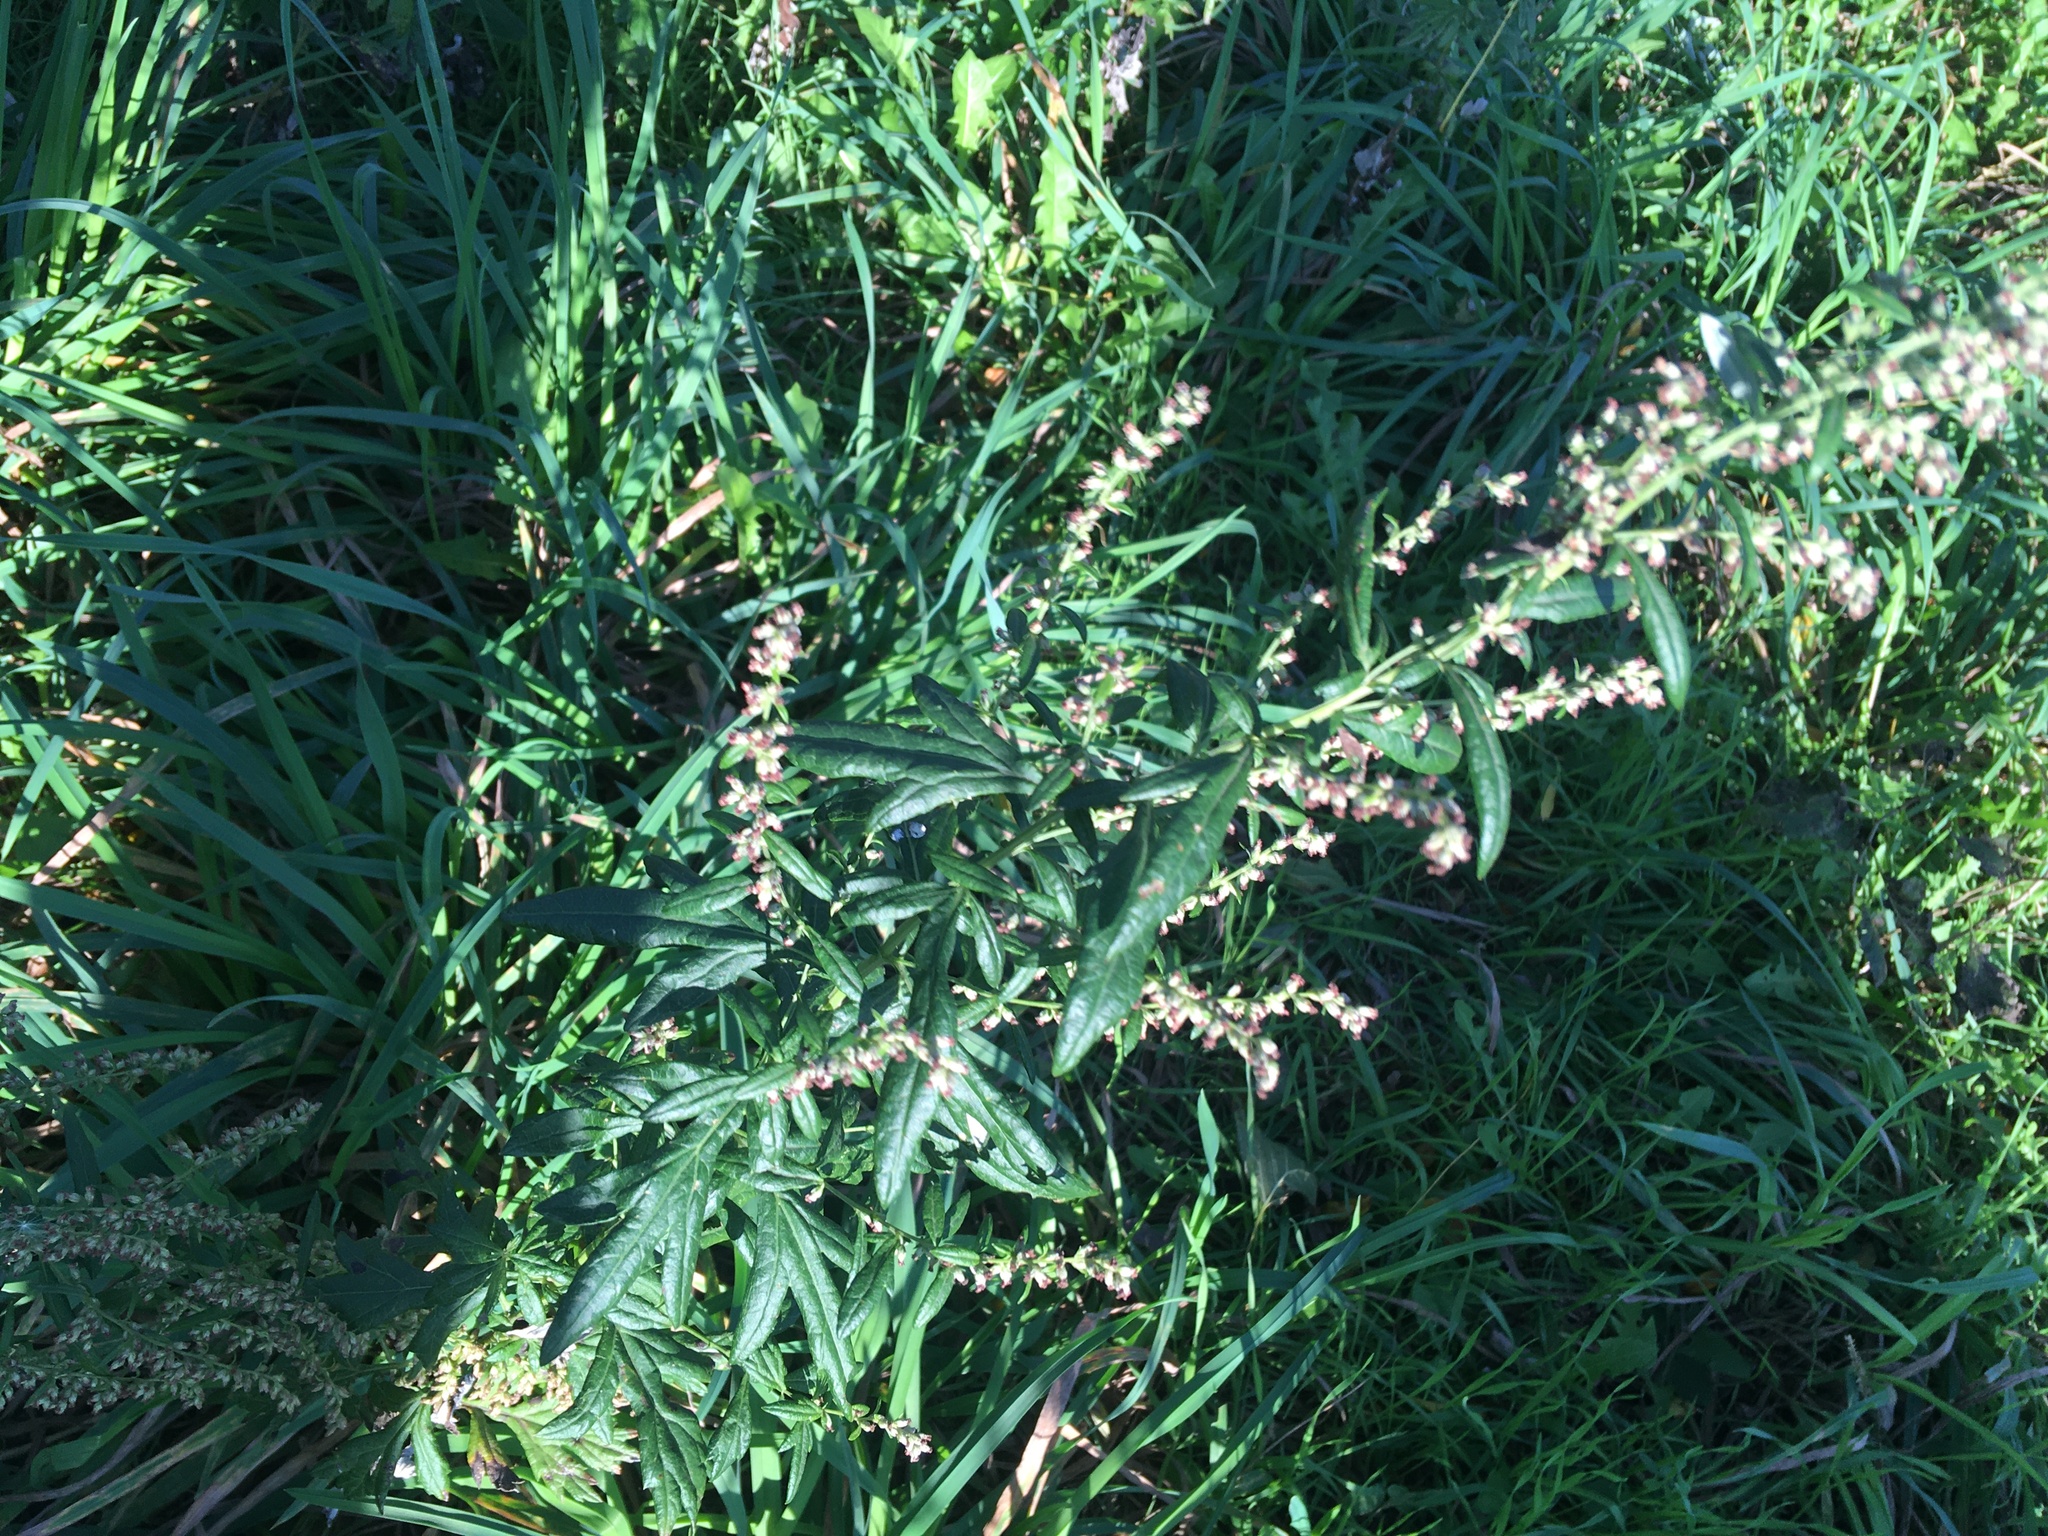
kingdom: Plantae
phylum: Tracheophyta
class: Magnoliopsida
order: Asterales
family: Asteraceae
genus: Artemisia
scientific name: Artemisia vulgaris
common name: Mugwort
